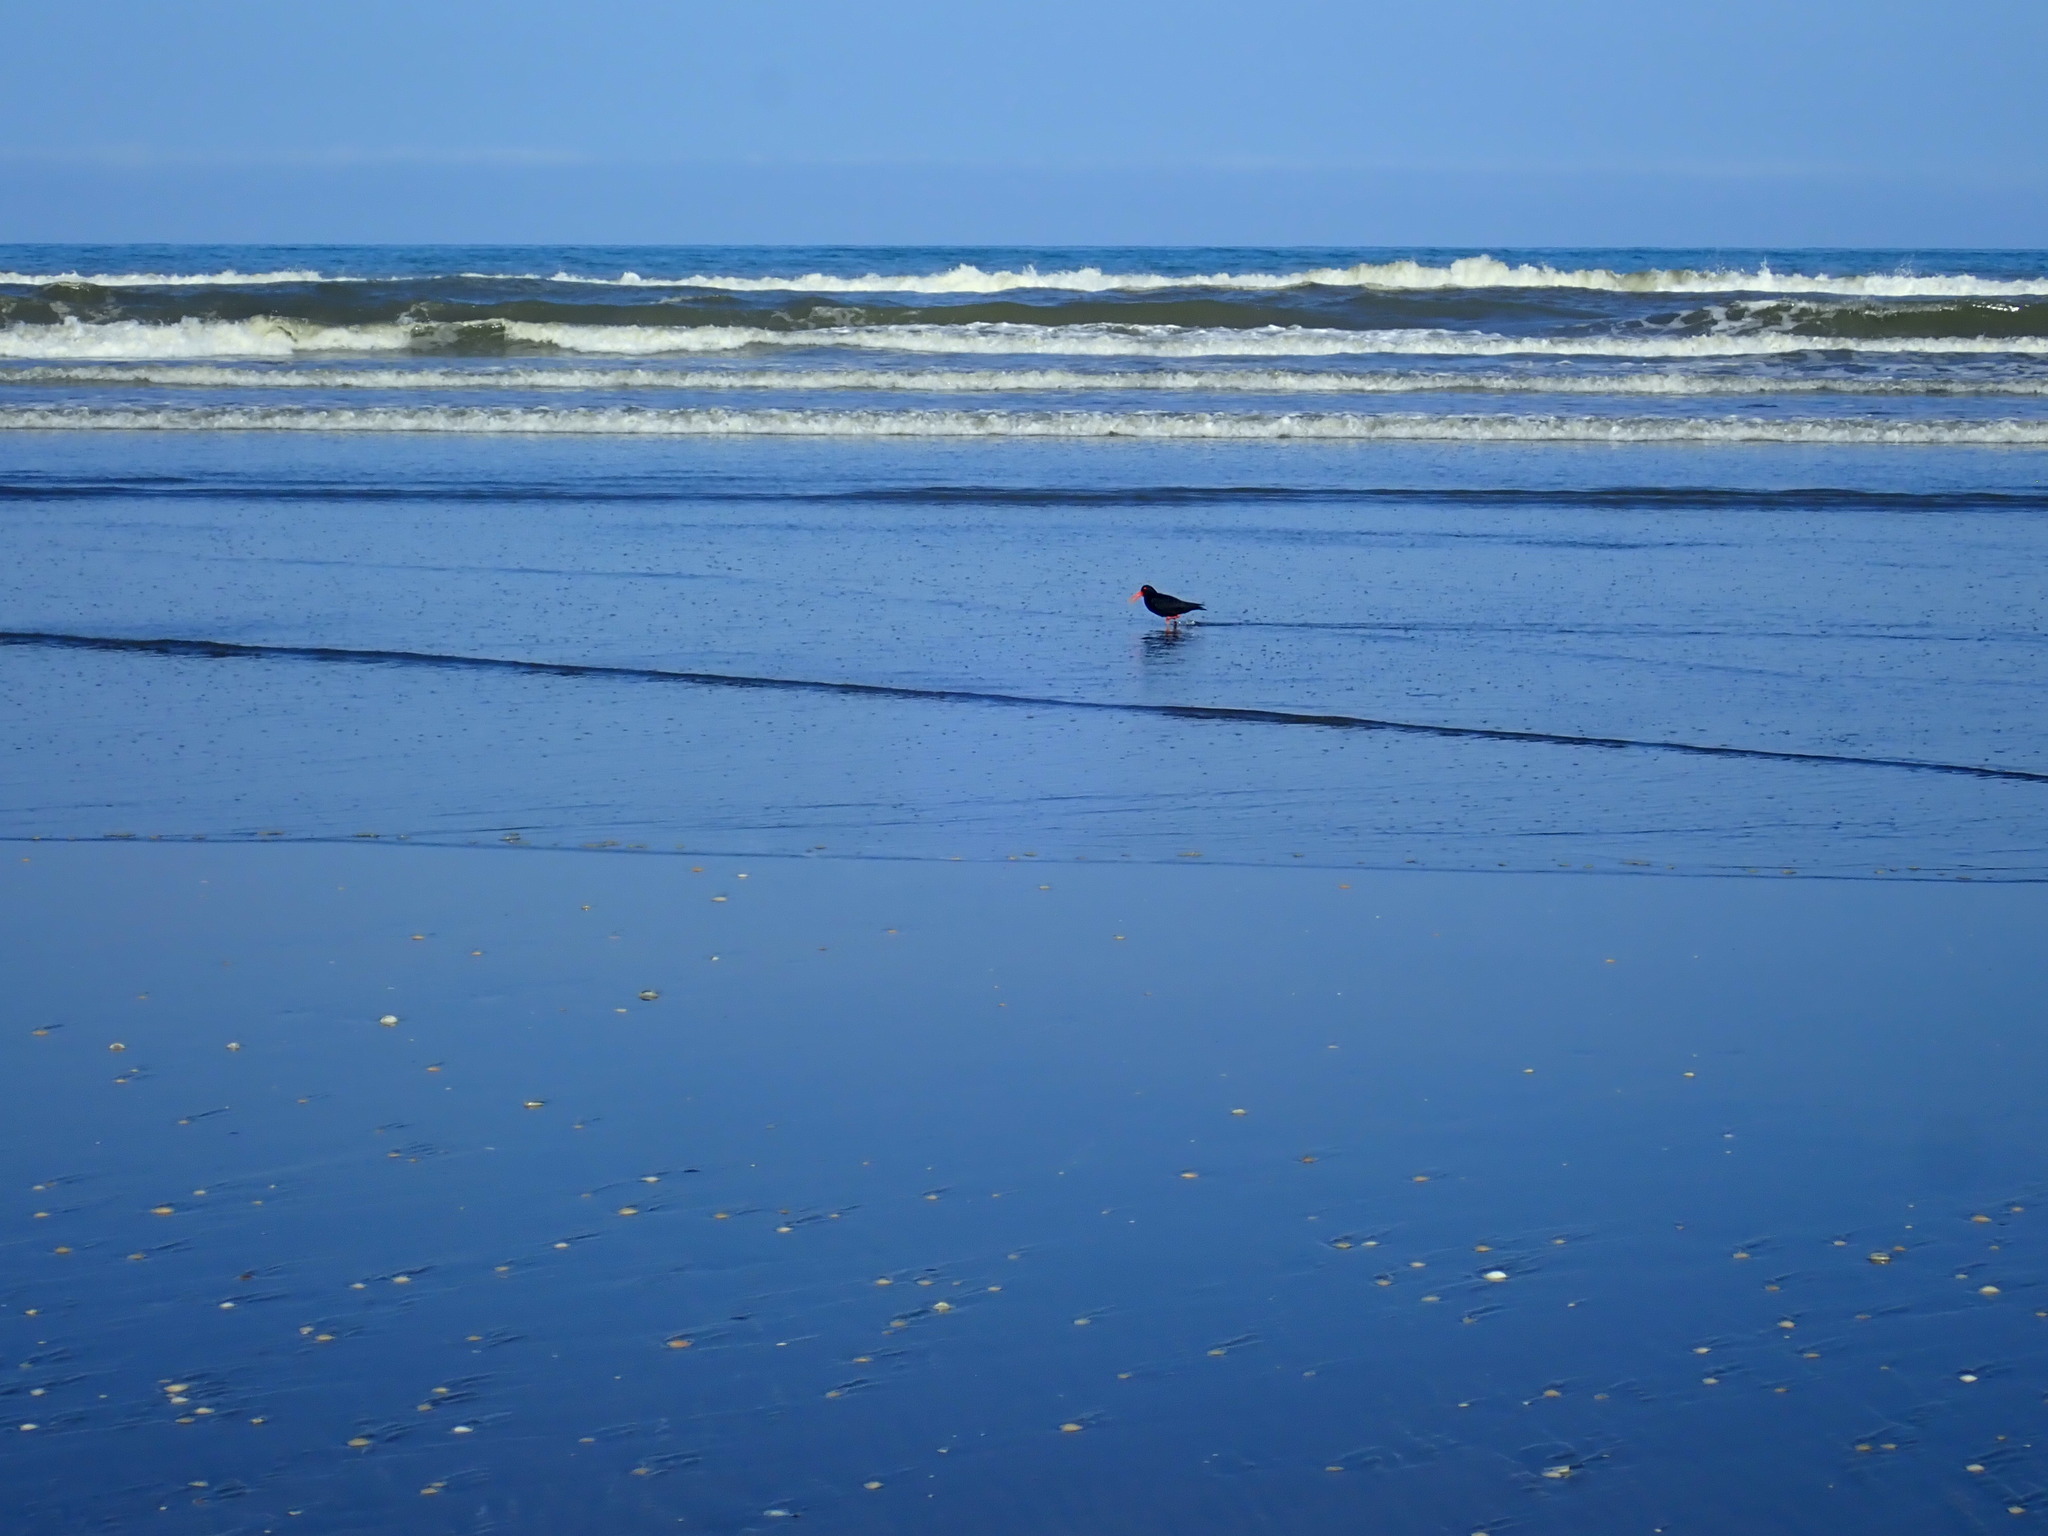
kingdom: Animalia
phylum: Chordata
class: Aves
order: Charadriiformes
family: Haematopodidae
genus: Haematopus
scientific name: Haematopus unicolor
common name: Variable oystercatcher
